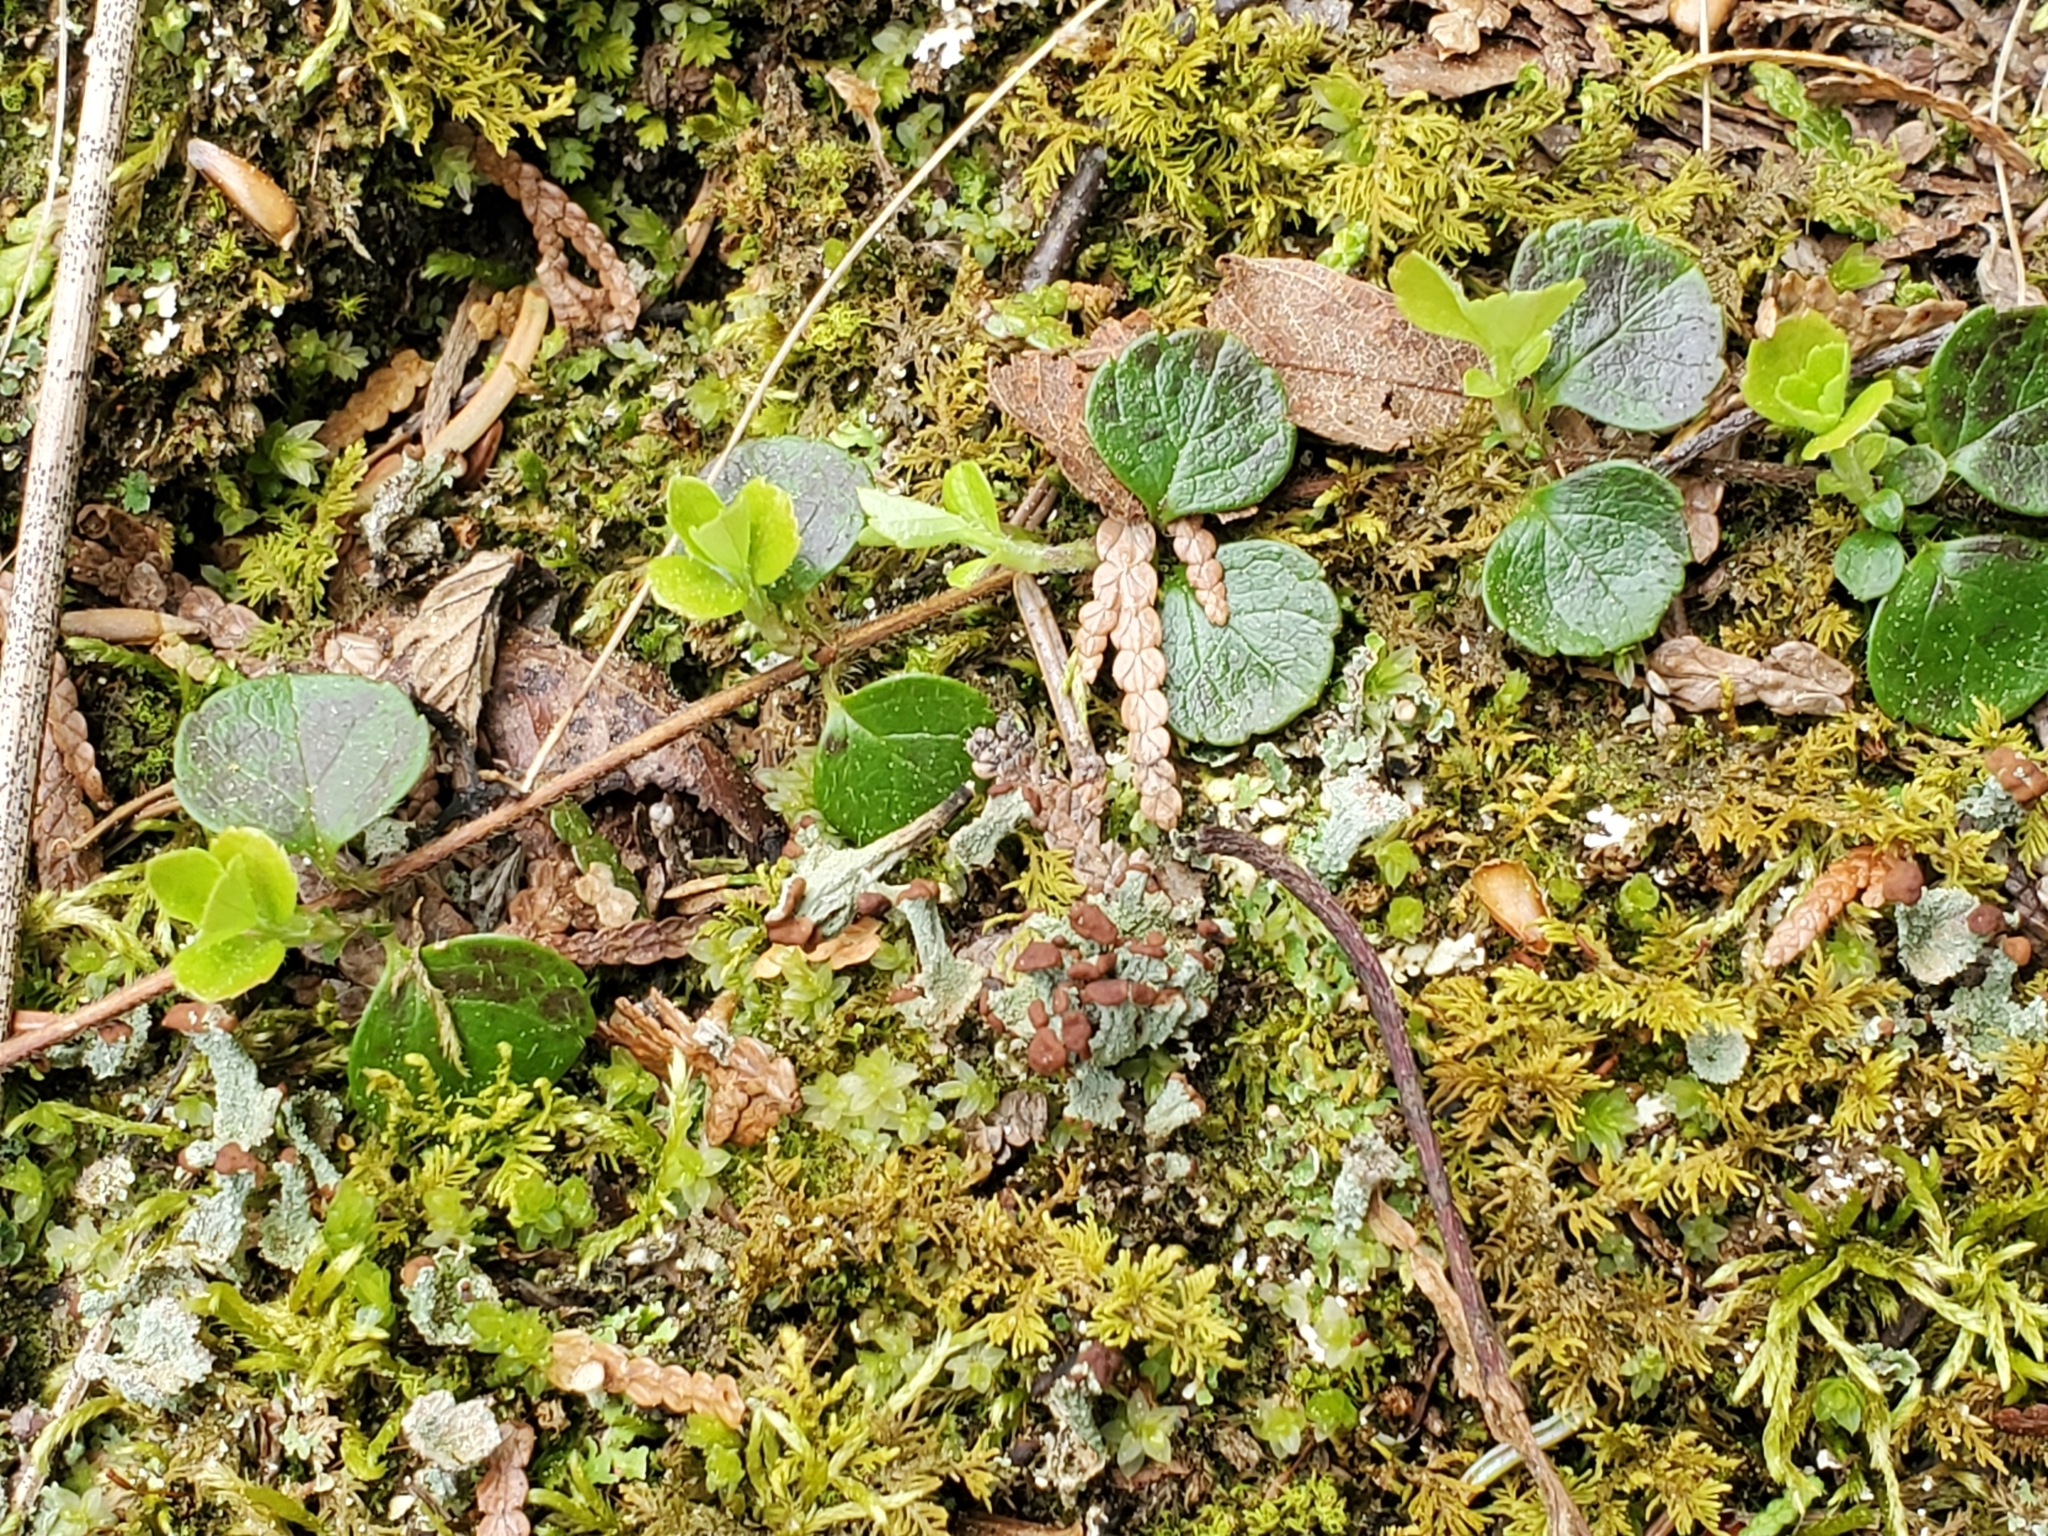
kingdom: Plantae
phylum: Tracheophyta
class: Magnoliopsida
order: Dipsacales
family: Caprifoliaceae
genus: Linnaea
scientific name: Linnaea borealis
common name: Twinflower
